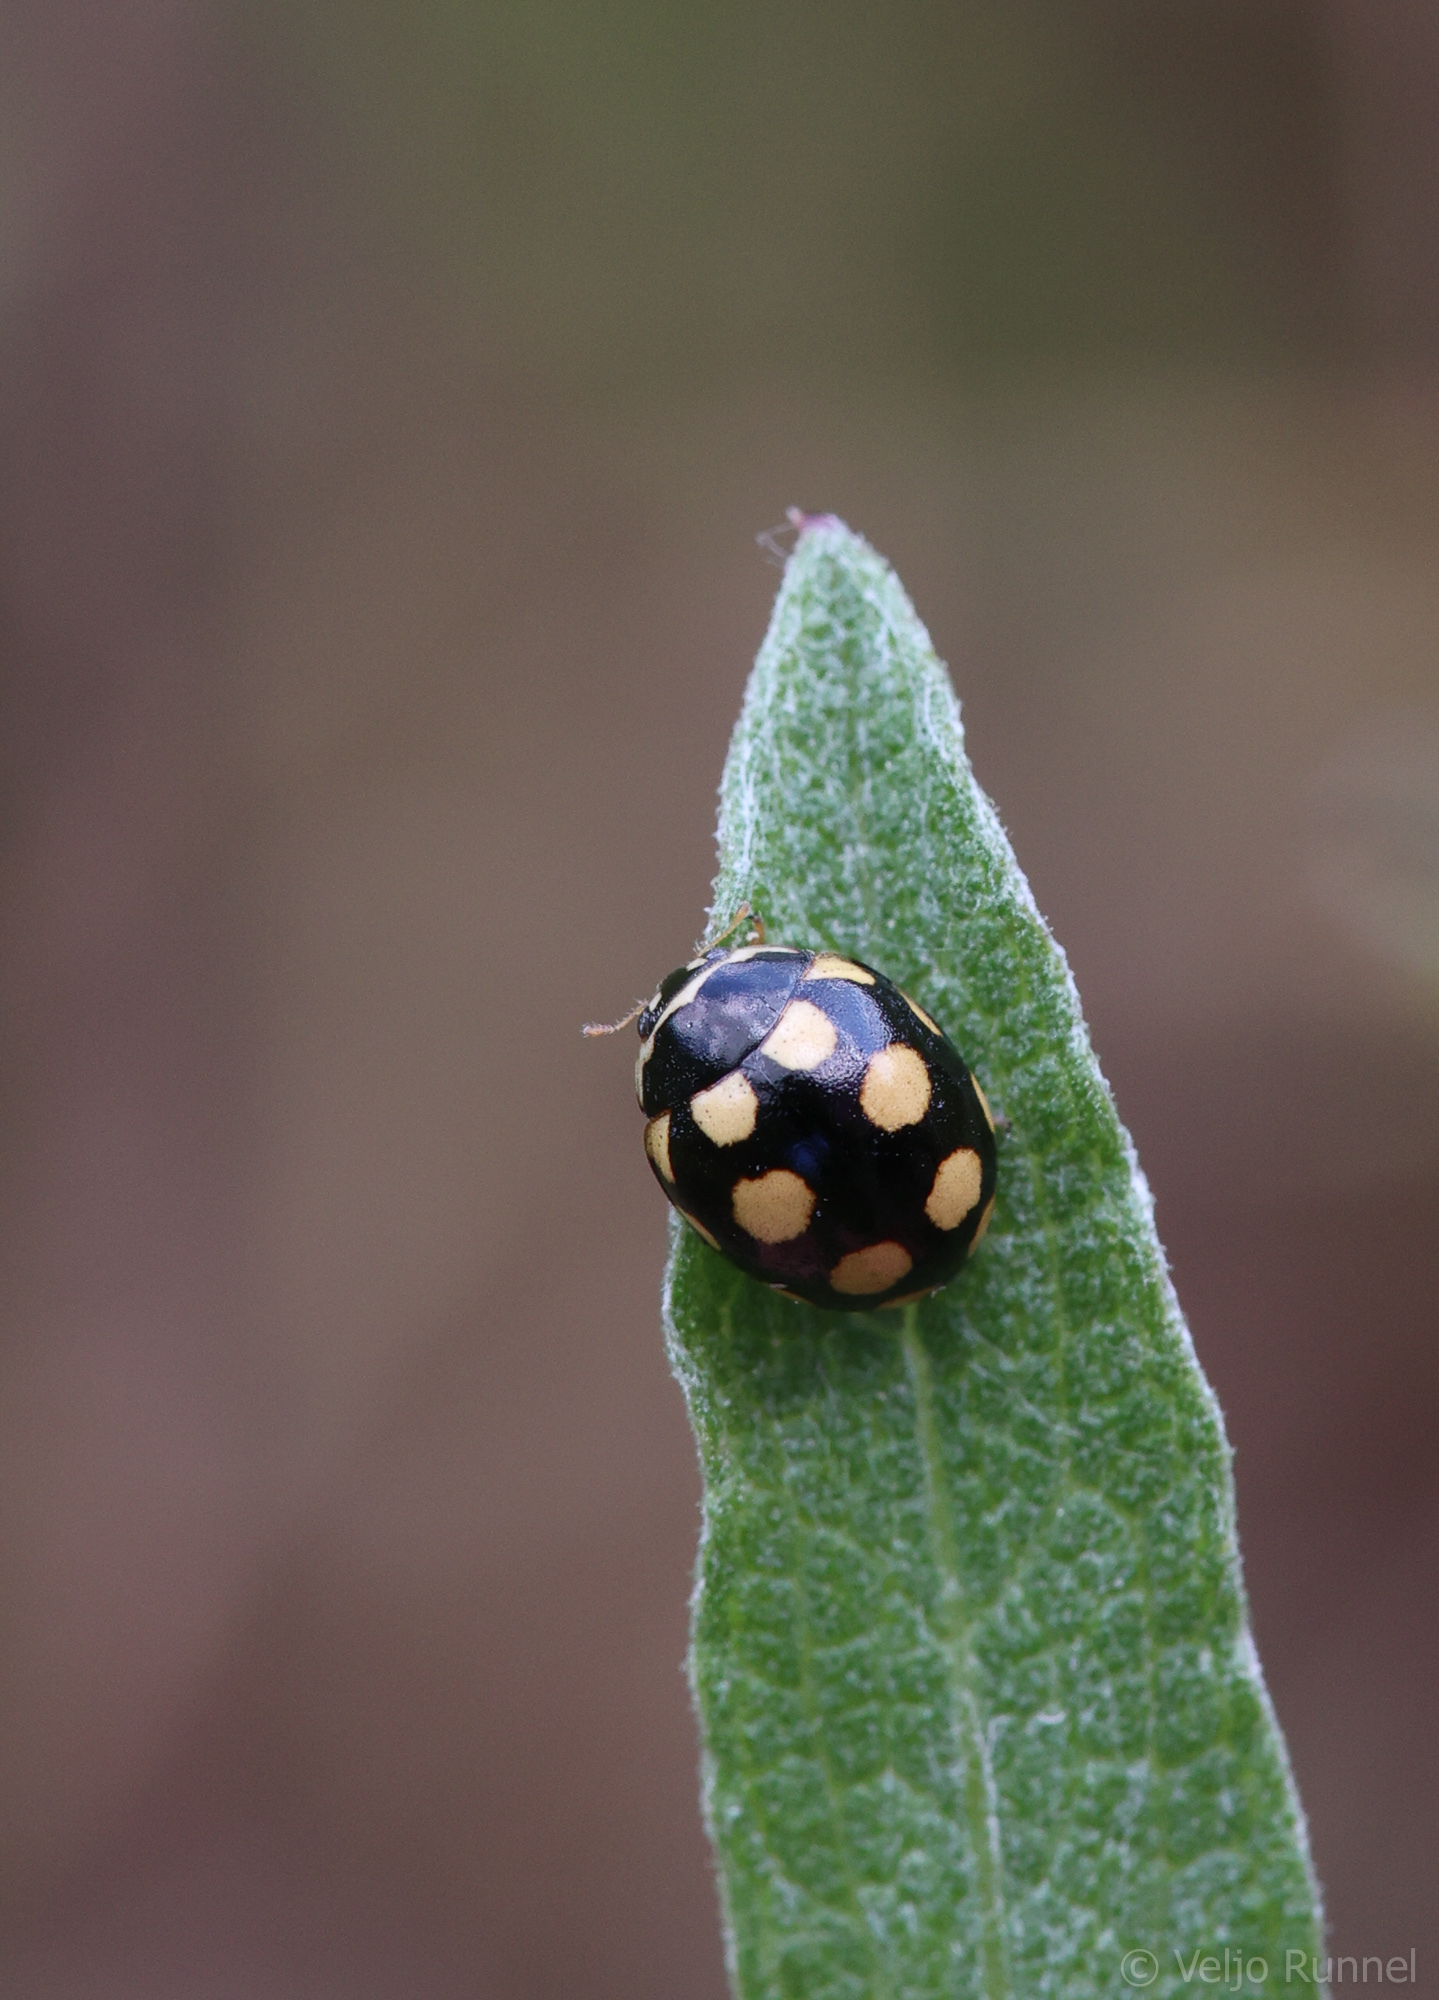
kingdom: Animalia
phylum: Arthropoda
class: Insecta
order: Coleoptera
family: Coccinellidae
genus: Coccinula
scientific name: Coccinula quatuordecimpustulata
